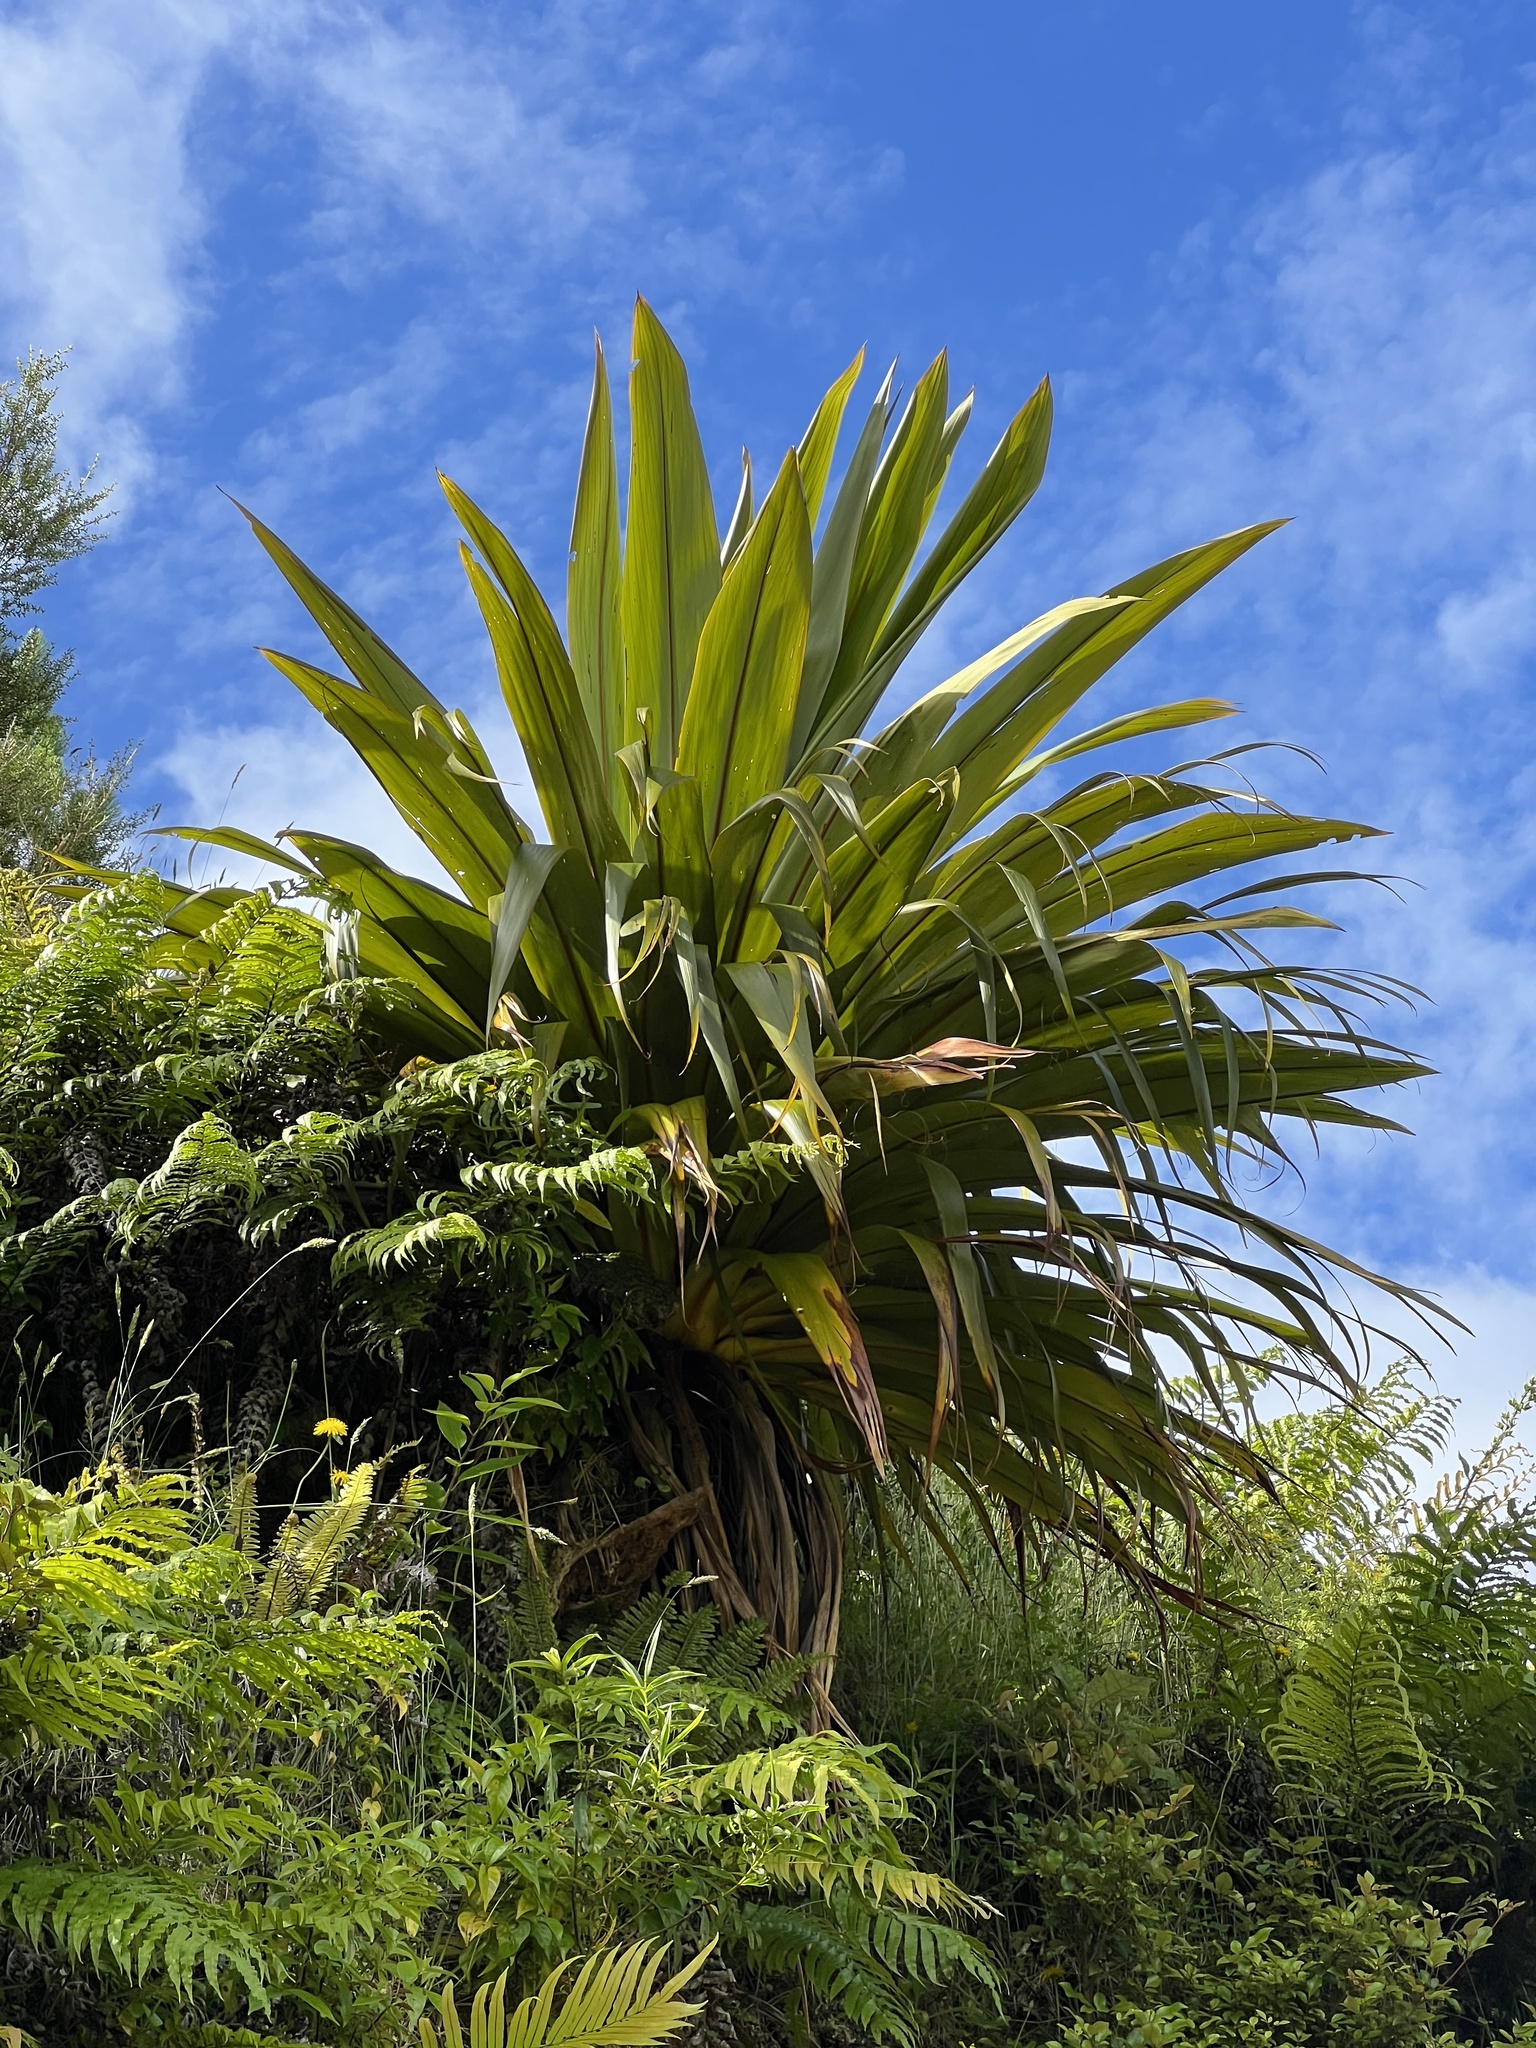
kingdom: Plantae
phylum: Tracheophyta
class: Liliopsida
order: Asparagales
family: Asparagaceae
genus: Cordyline
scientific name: Cordyline indivisa
